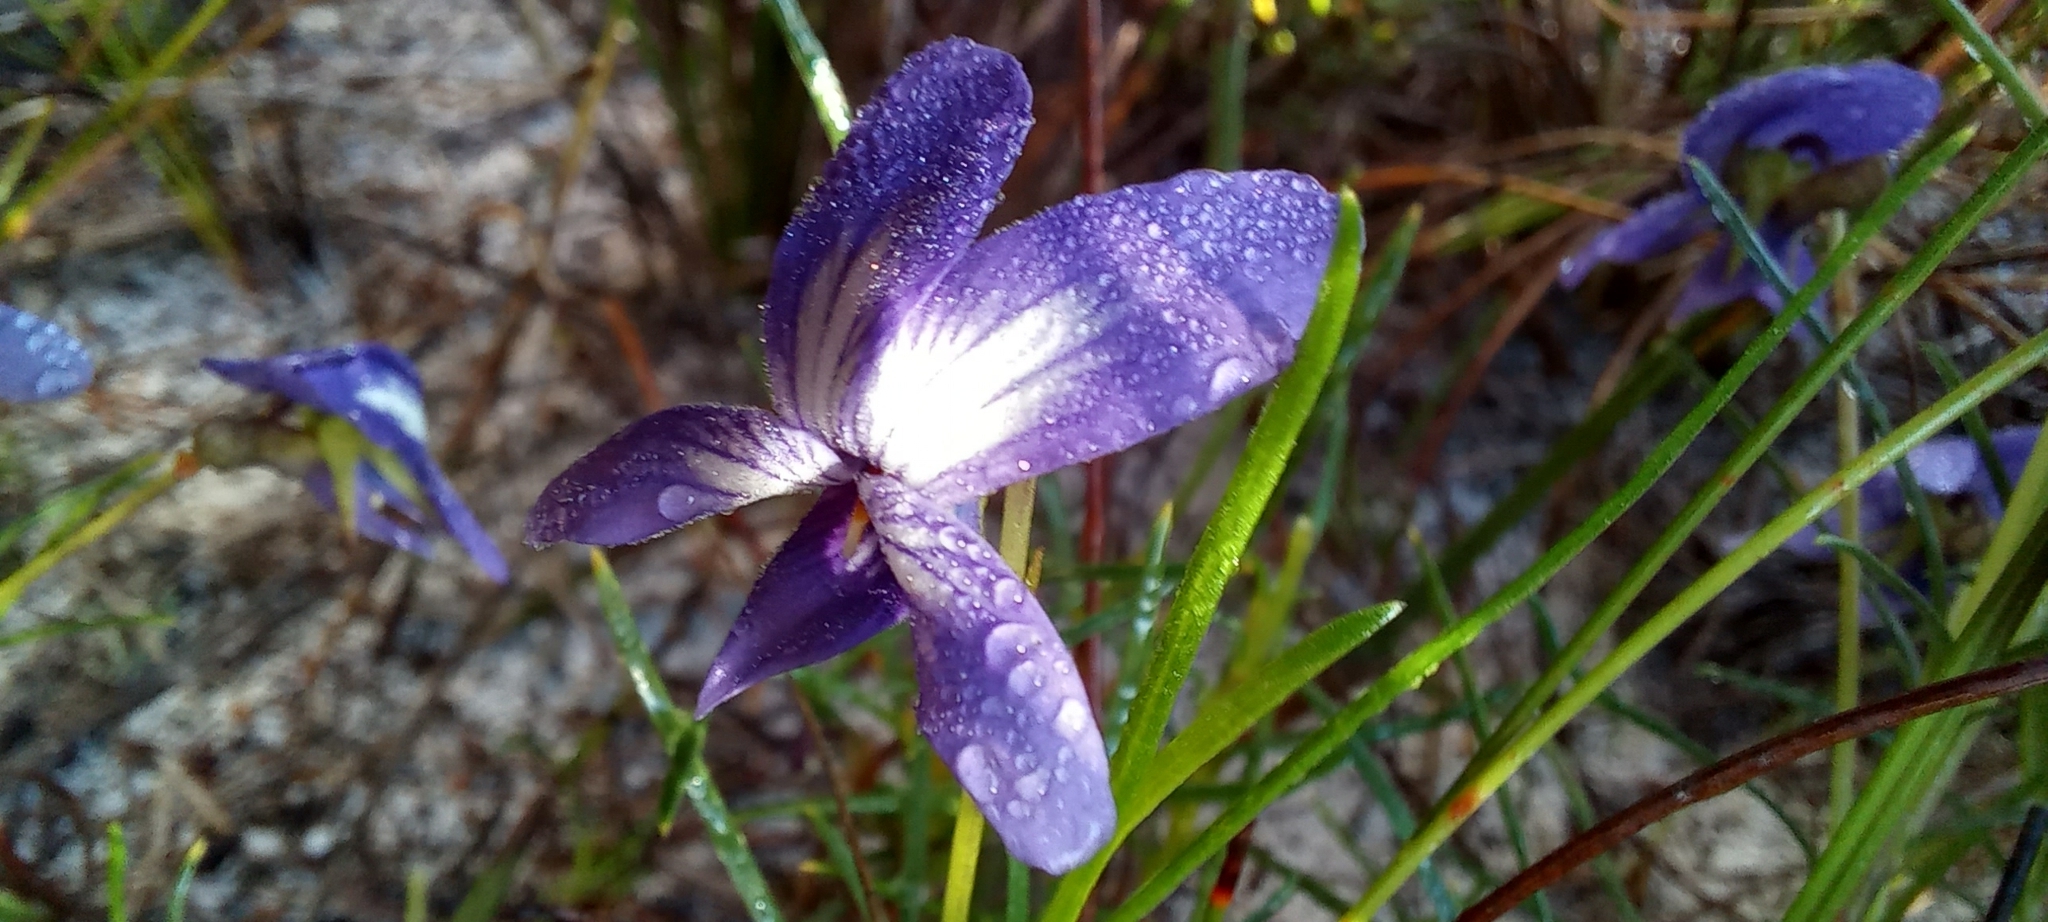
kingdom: Plantae
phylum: Tracheophyta
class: Magnoliopsida
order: Malpighiales
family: Violaceae
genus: Viola
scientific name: Viola decumbens
